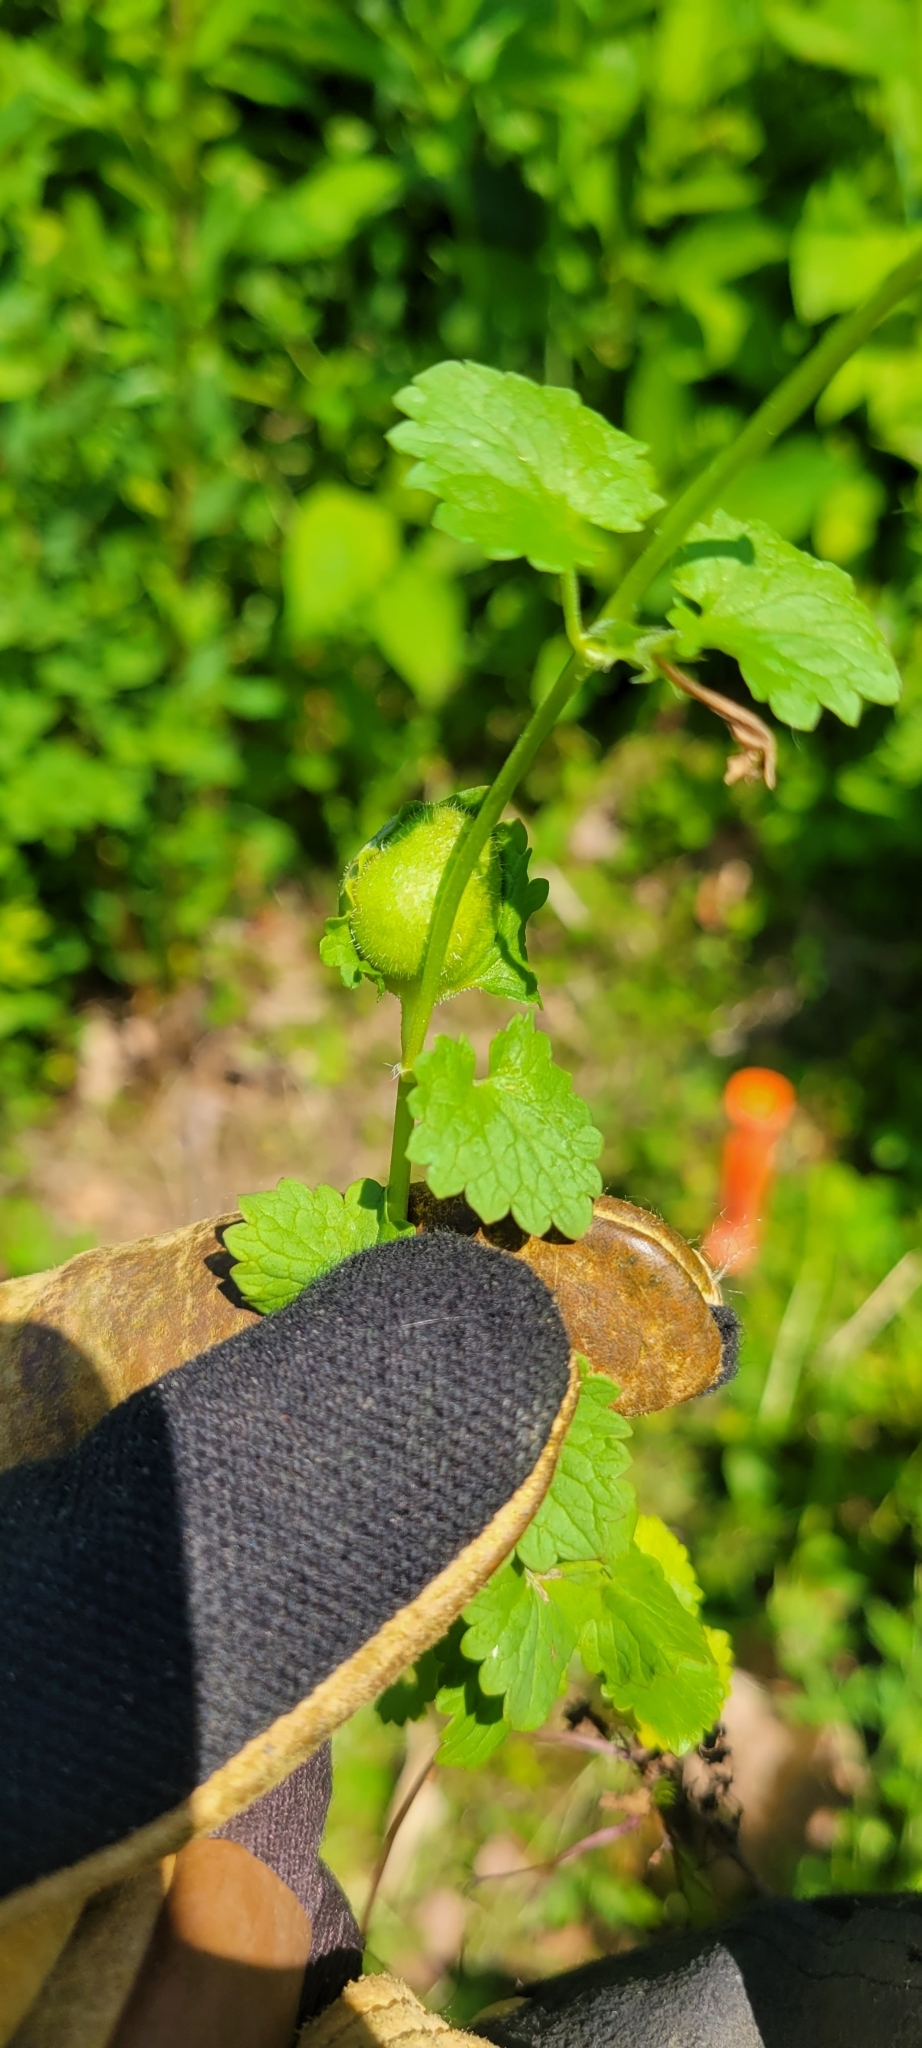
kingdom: Animalia
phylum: Arthropoda
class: Insecta
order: Hymenoptera
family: Cynipidae
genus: Liposthenes
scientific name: Liposthenes glechomae
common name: Gall wasp
